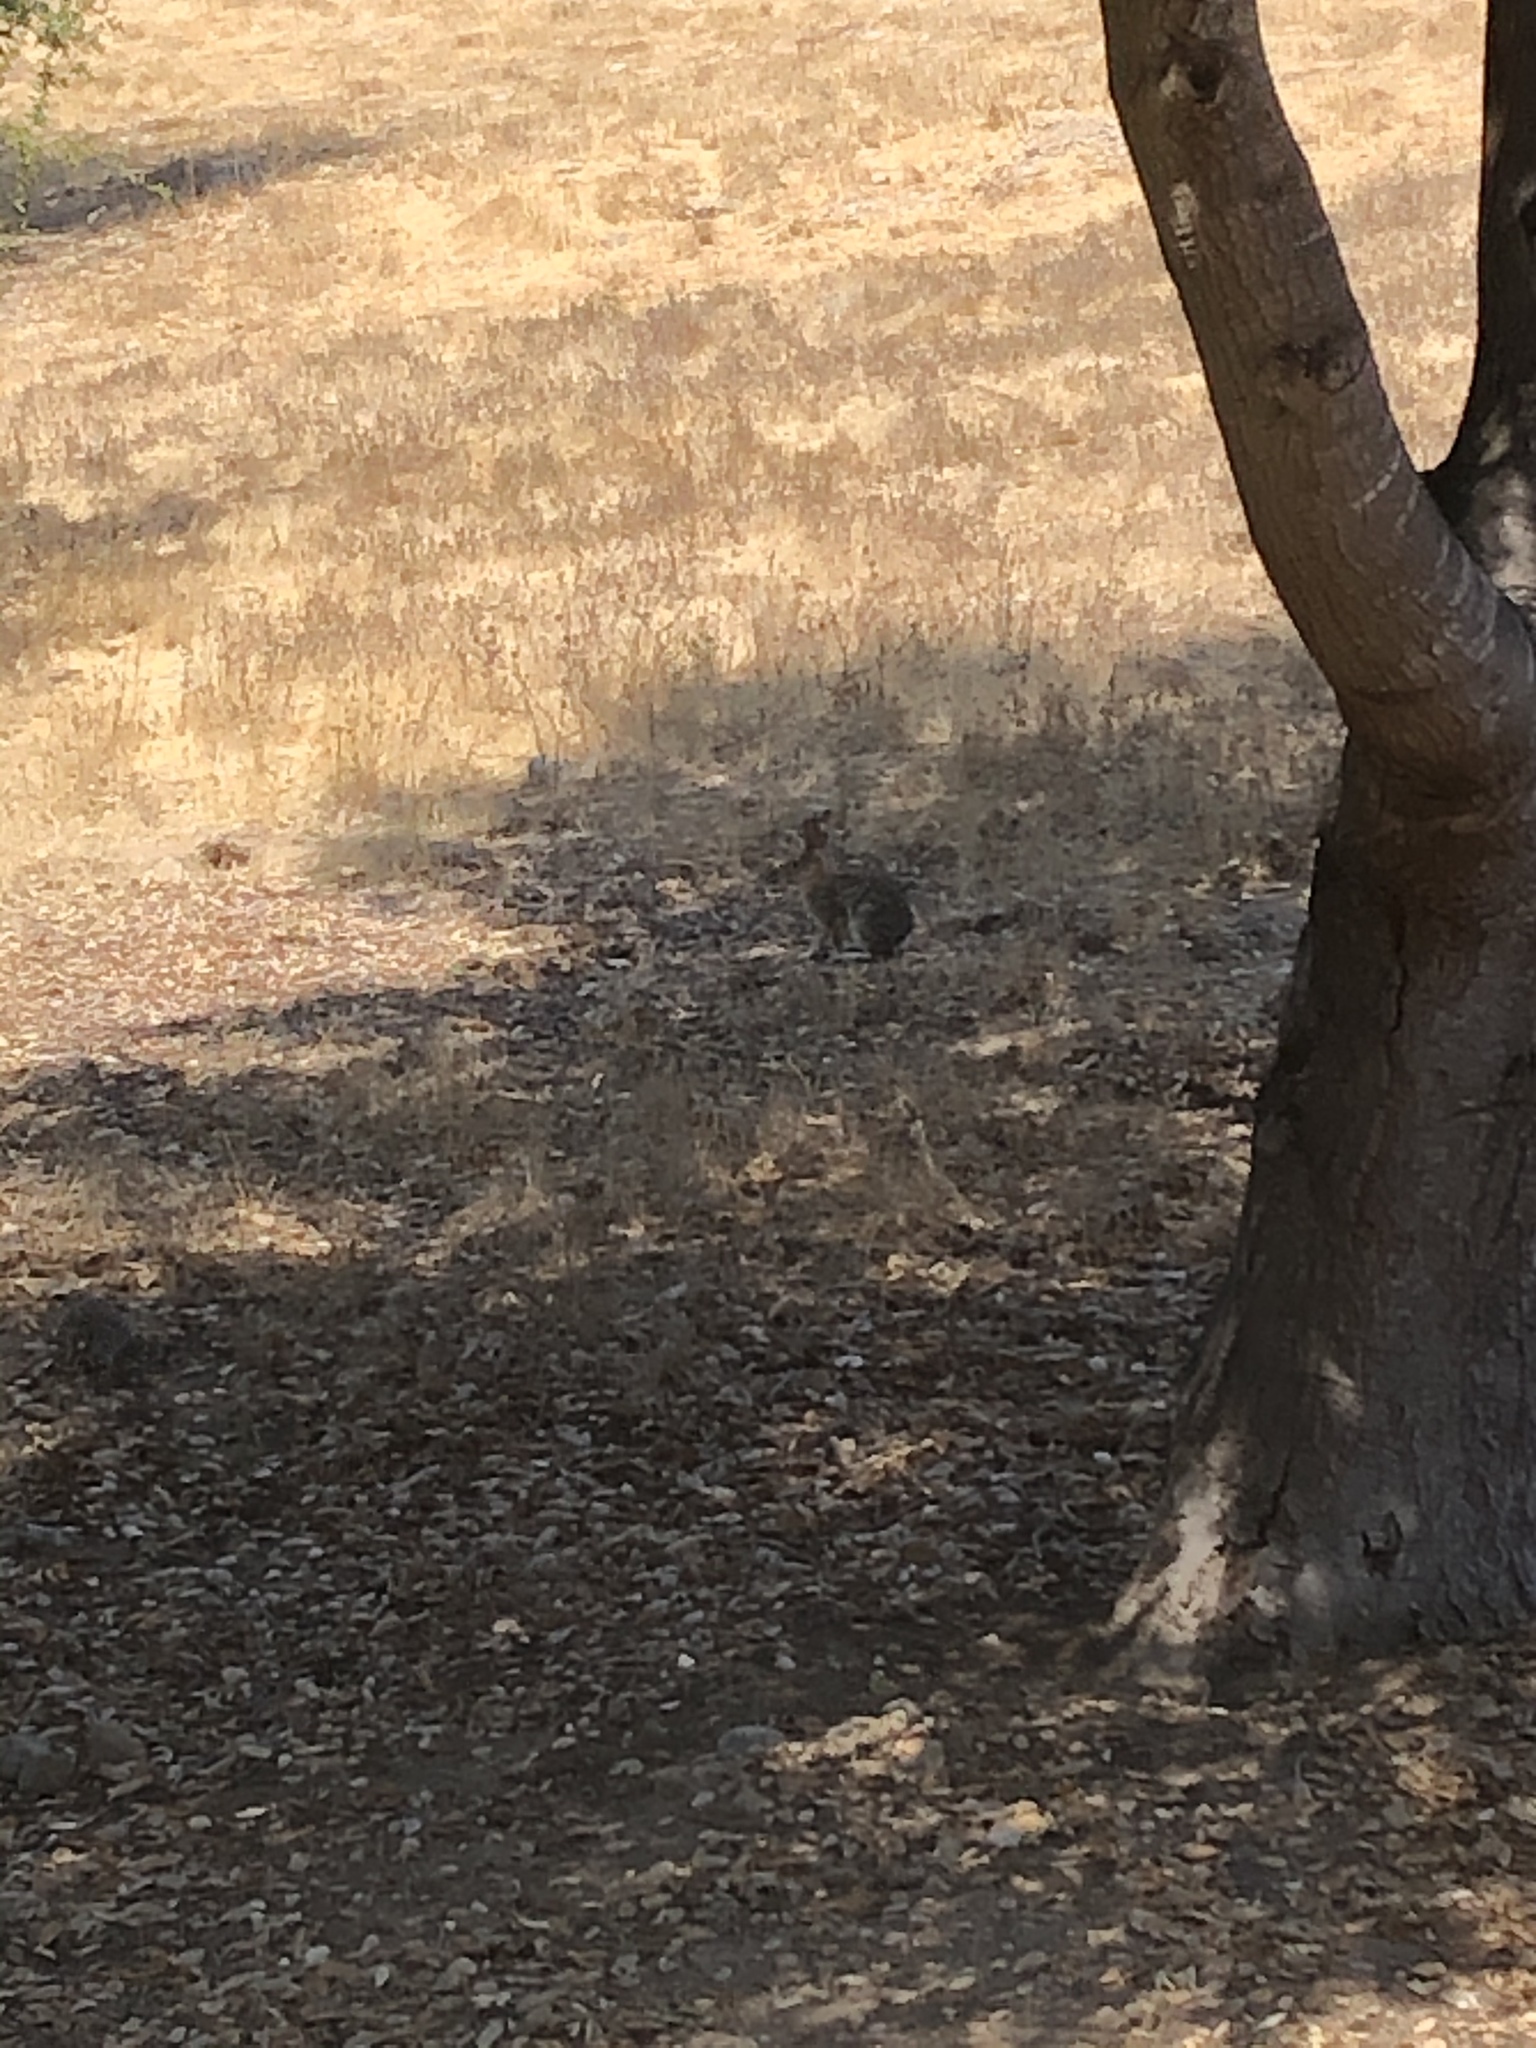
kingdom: Animalia
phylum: Chordata
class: Mammalia
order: Lagomorpha
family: Leporidae
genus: Sylvilagus
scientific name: Sylvilagus audubonii
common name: Desert cottontail
